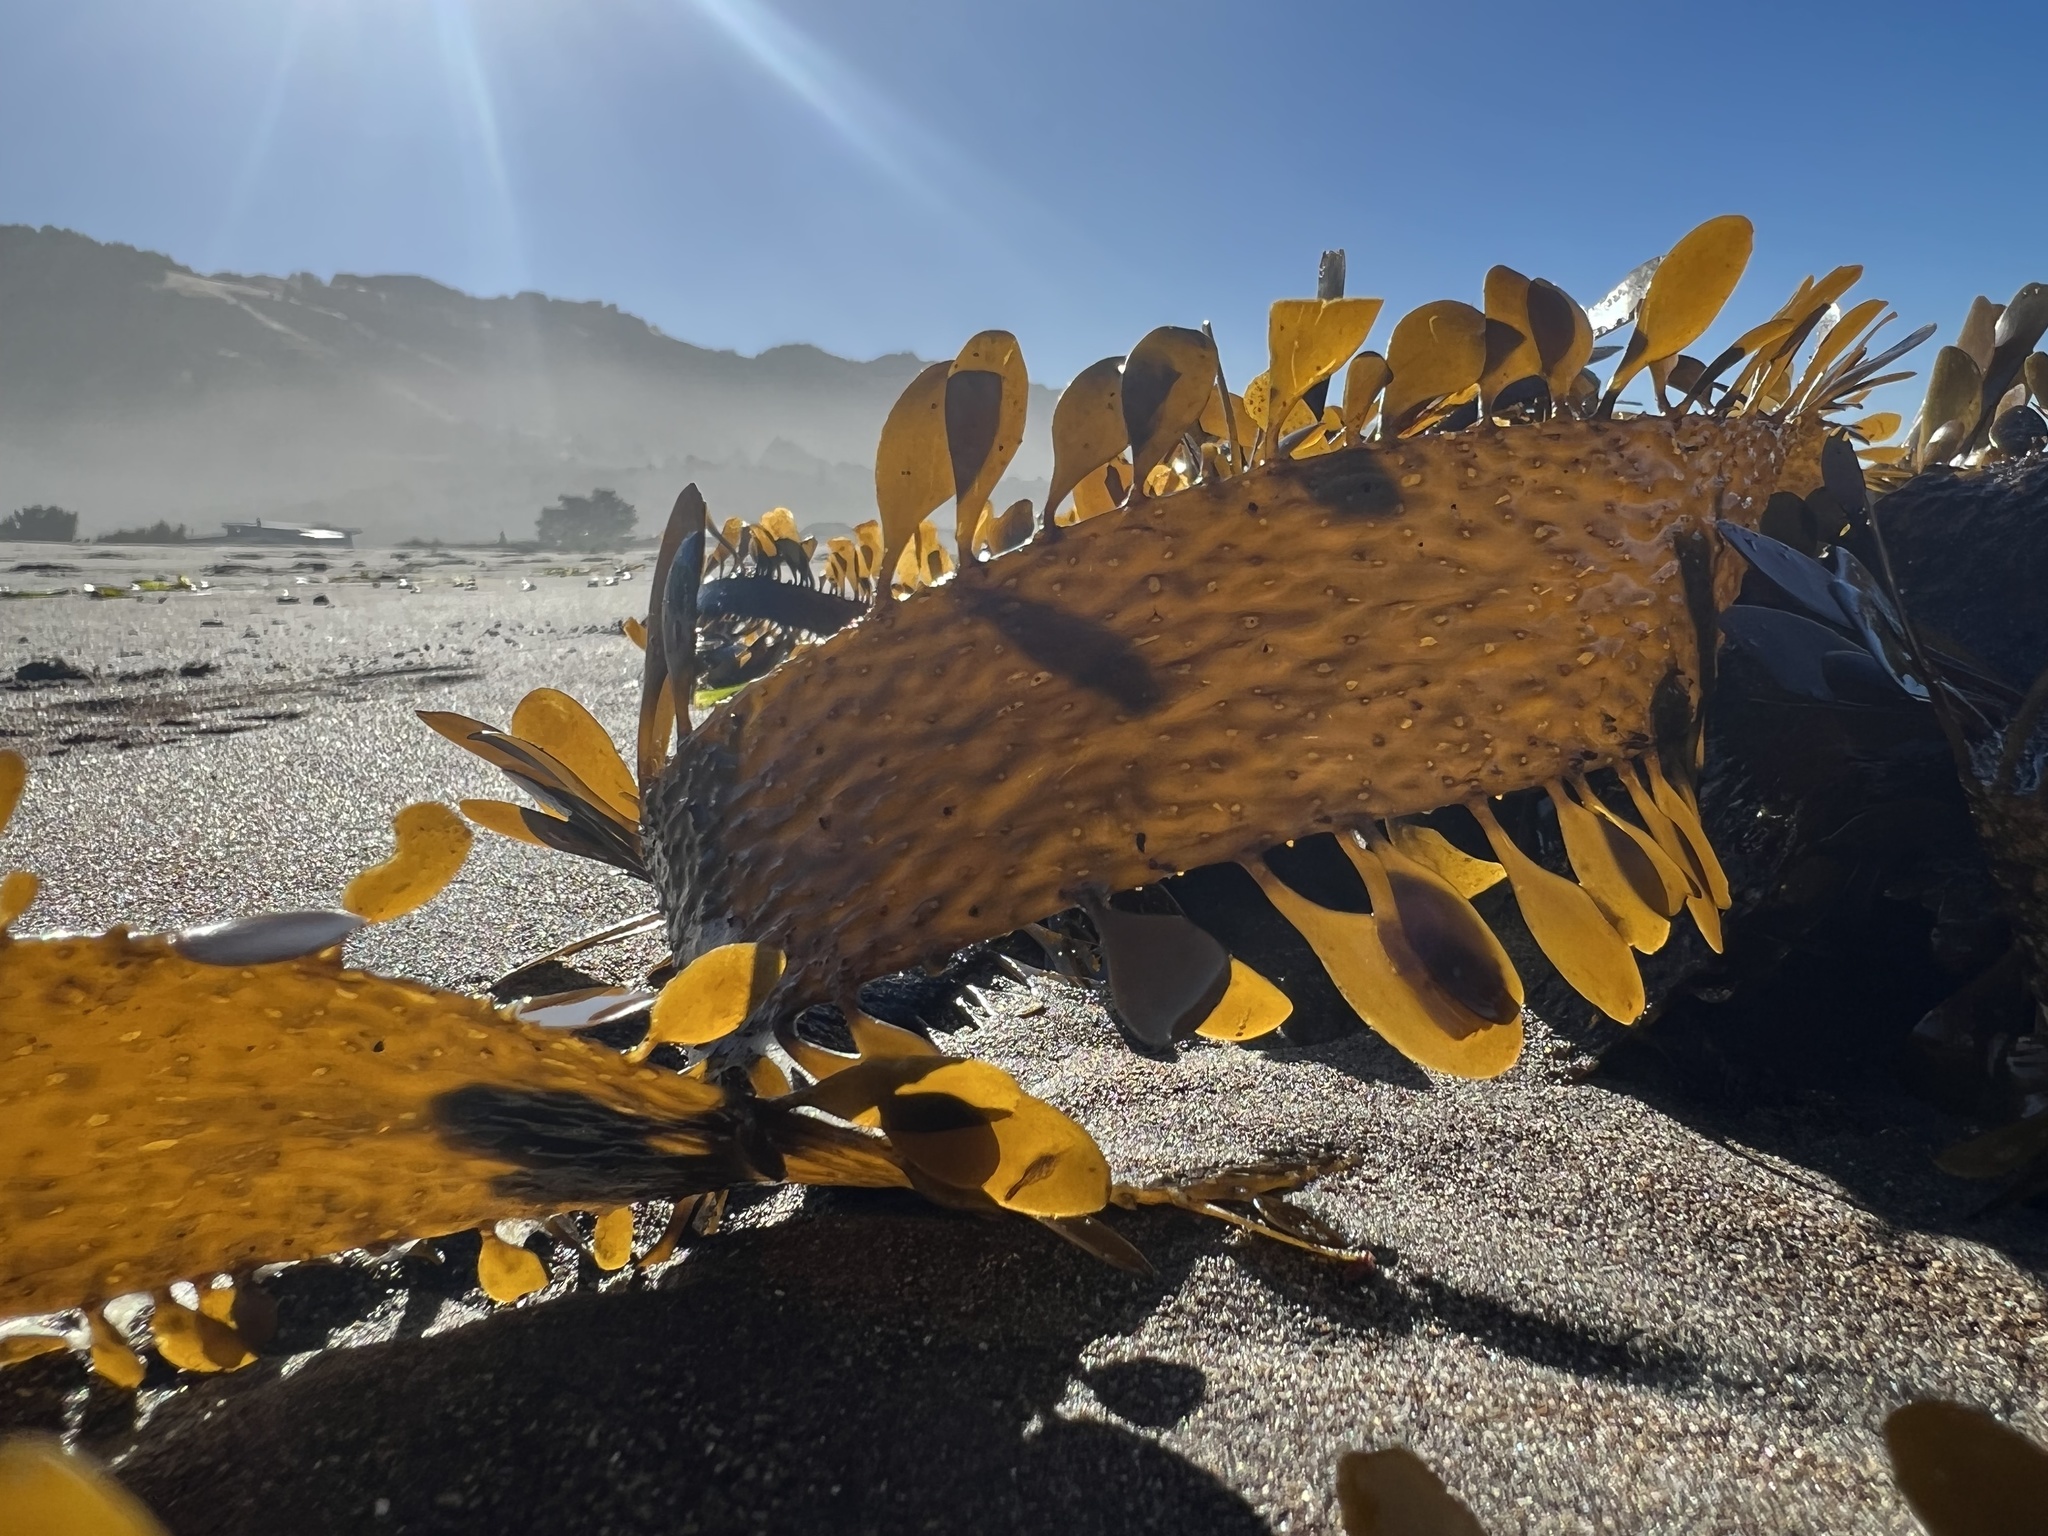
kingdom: Chromista
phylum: Ochrophyta
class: Phaeophyceae
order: Laminariales
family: Lessoniaceae
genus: Egregia
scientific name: Egregia menziesii
